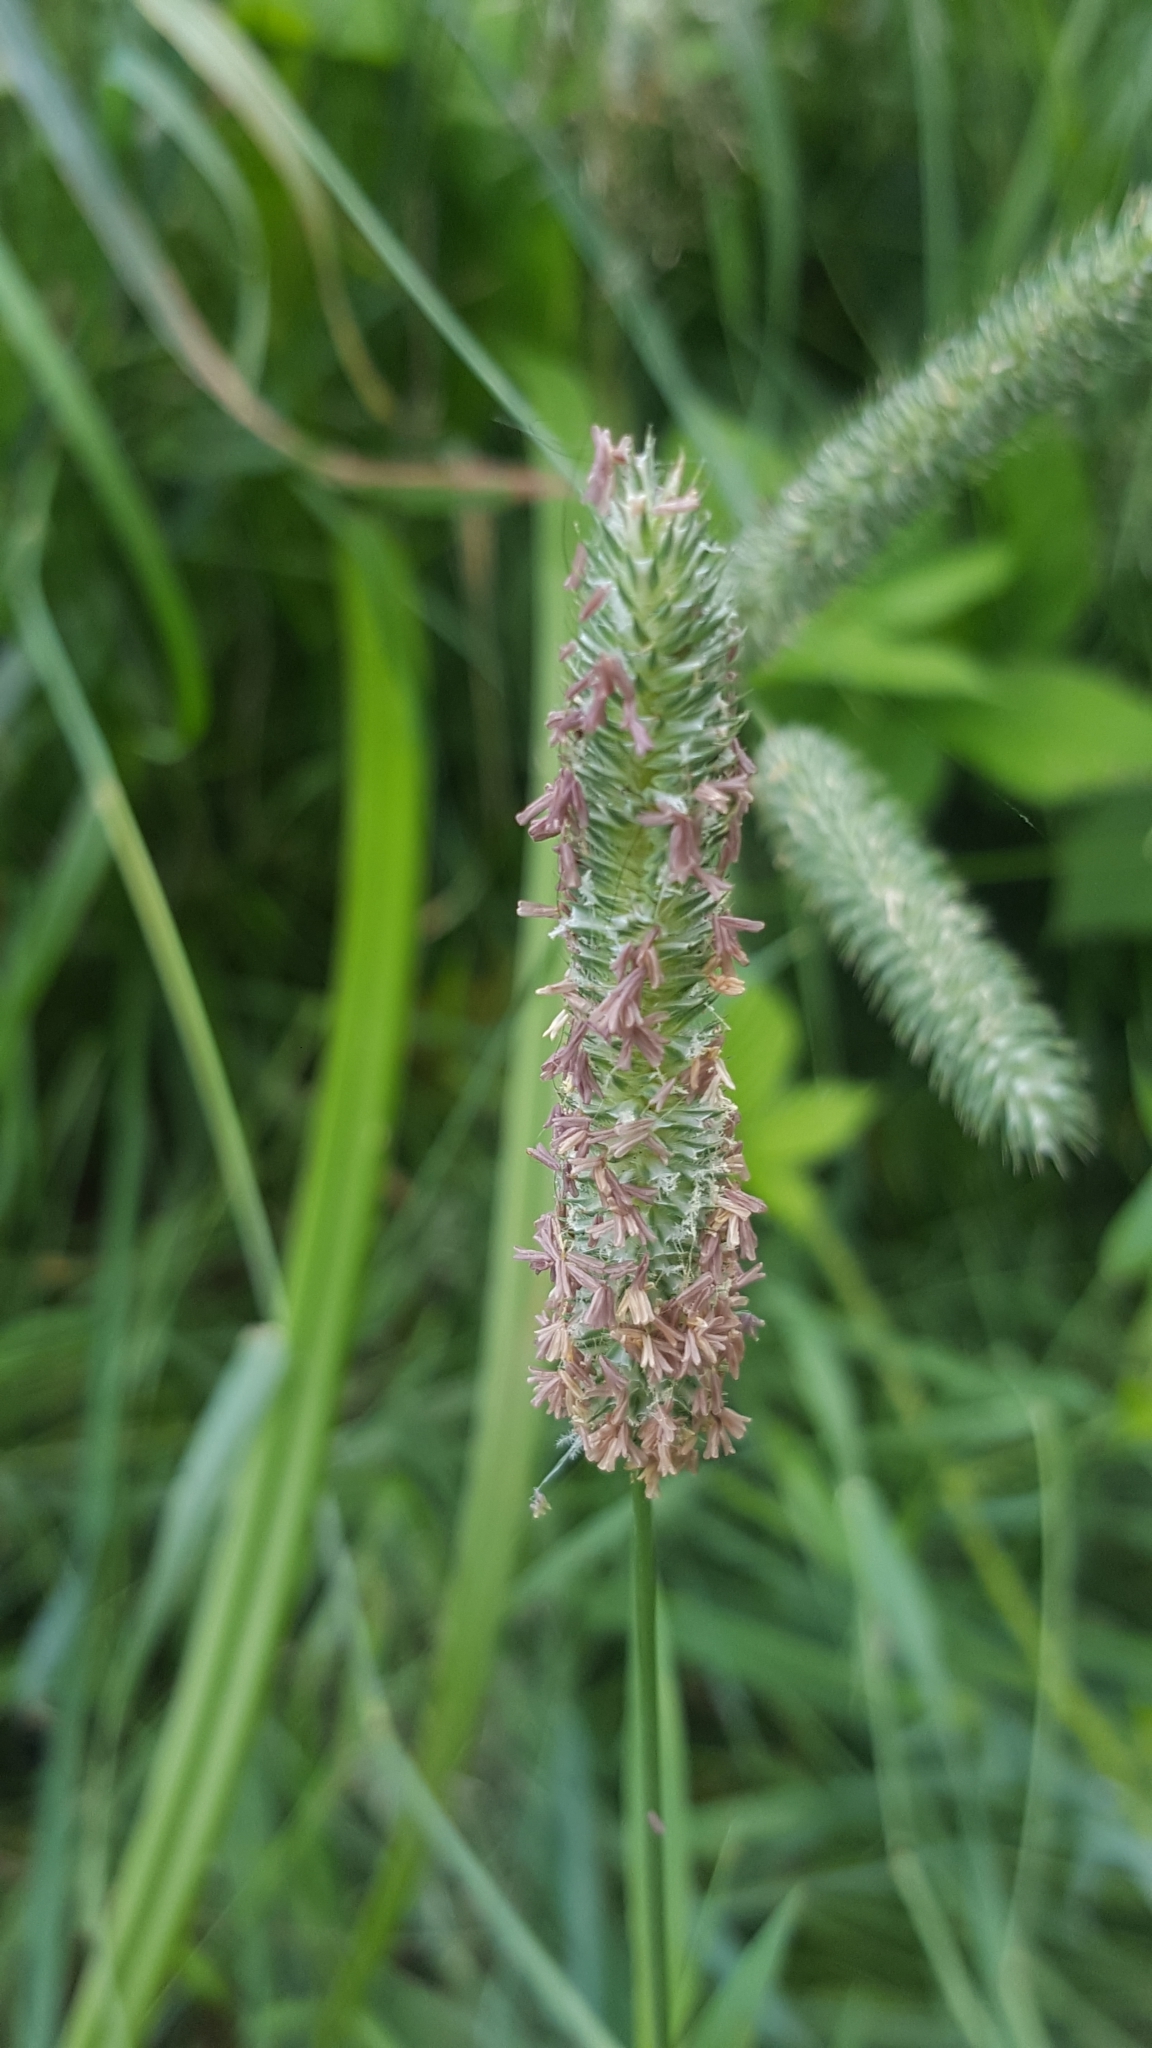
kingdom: Plantae
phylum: Tracheophyta
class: Liliopsida
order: Poales
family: Poaceae
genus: Phleum
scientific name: Phleum pratense
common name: Timothy grass
